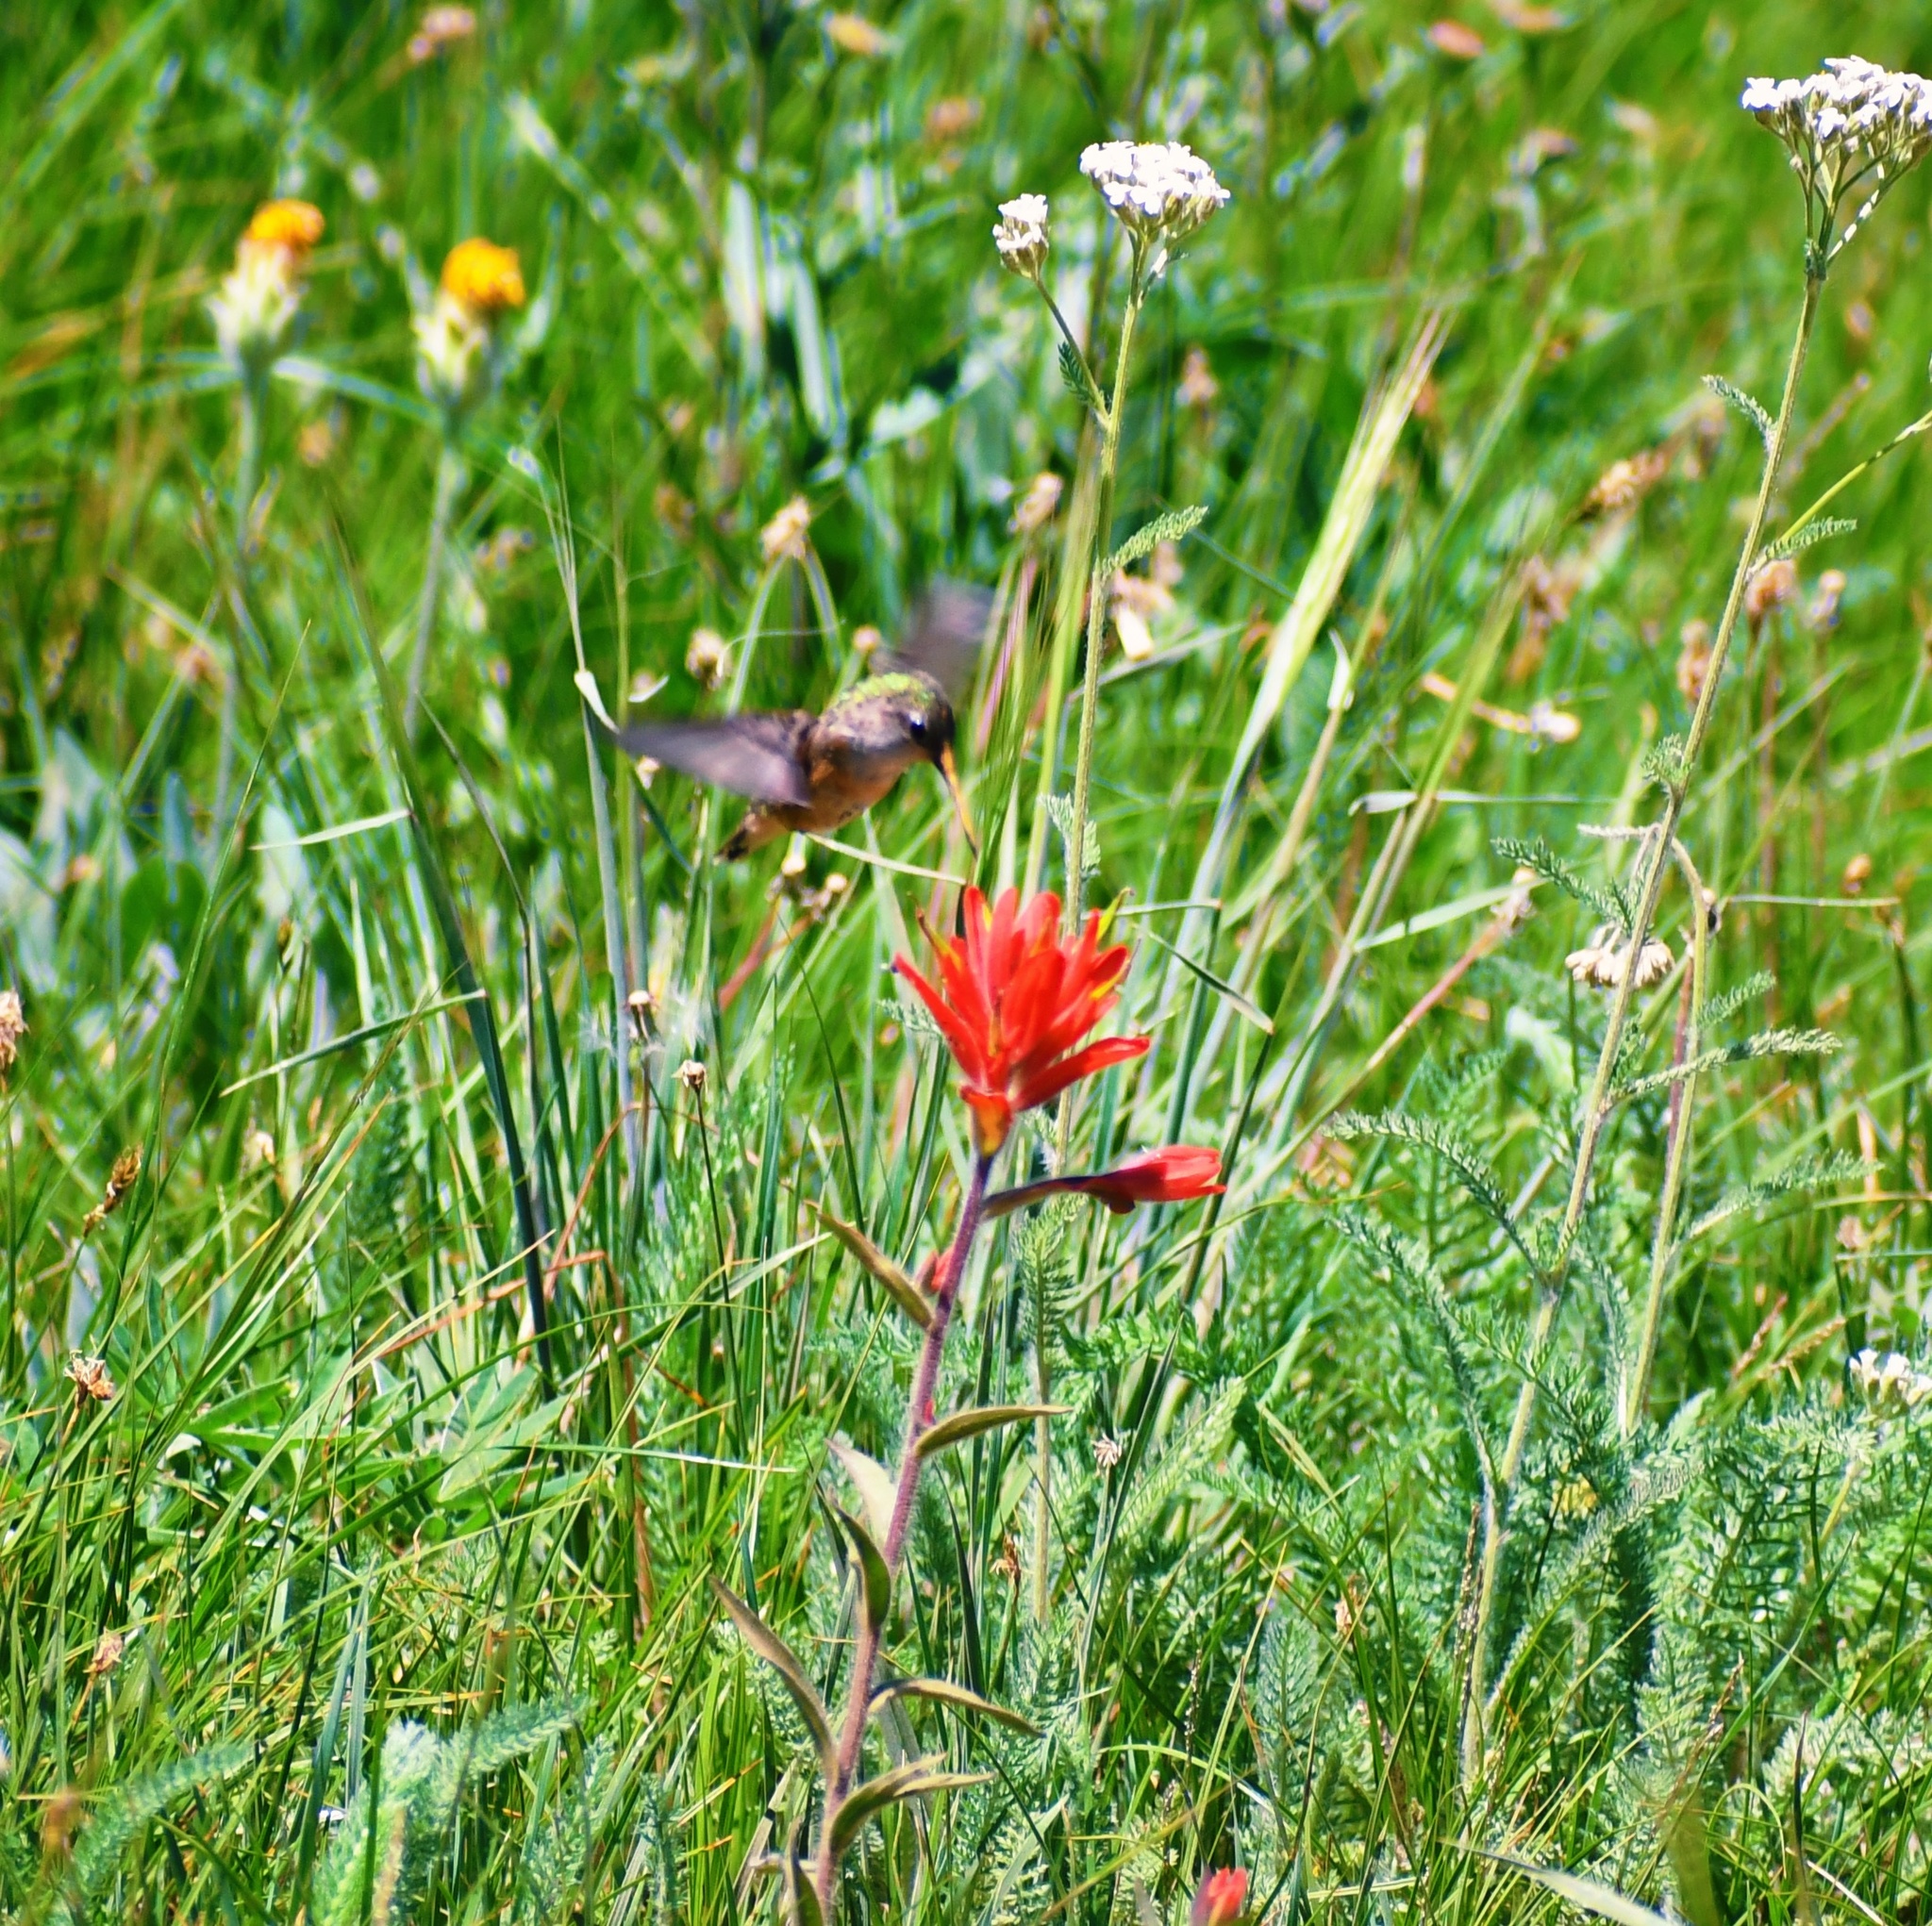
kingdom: Animalia
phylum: Chordata
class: Aves
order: Apodiformes
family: Trochilidae
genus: Selasphorus
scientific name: Selasphorus rufus
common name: Rufous hummingbird
